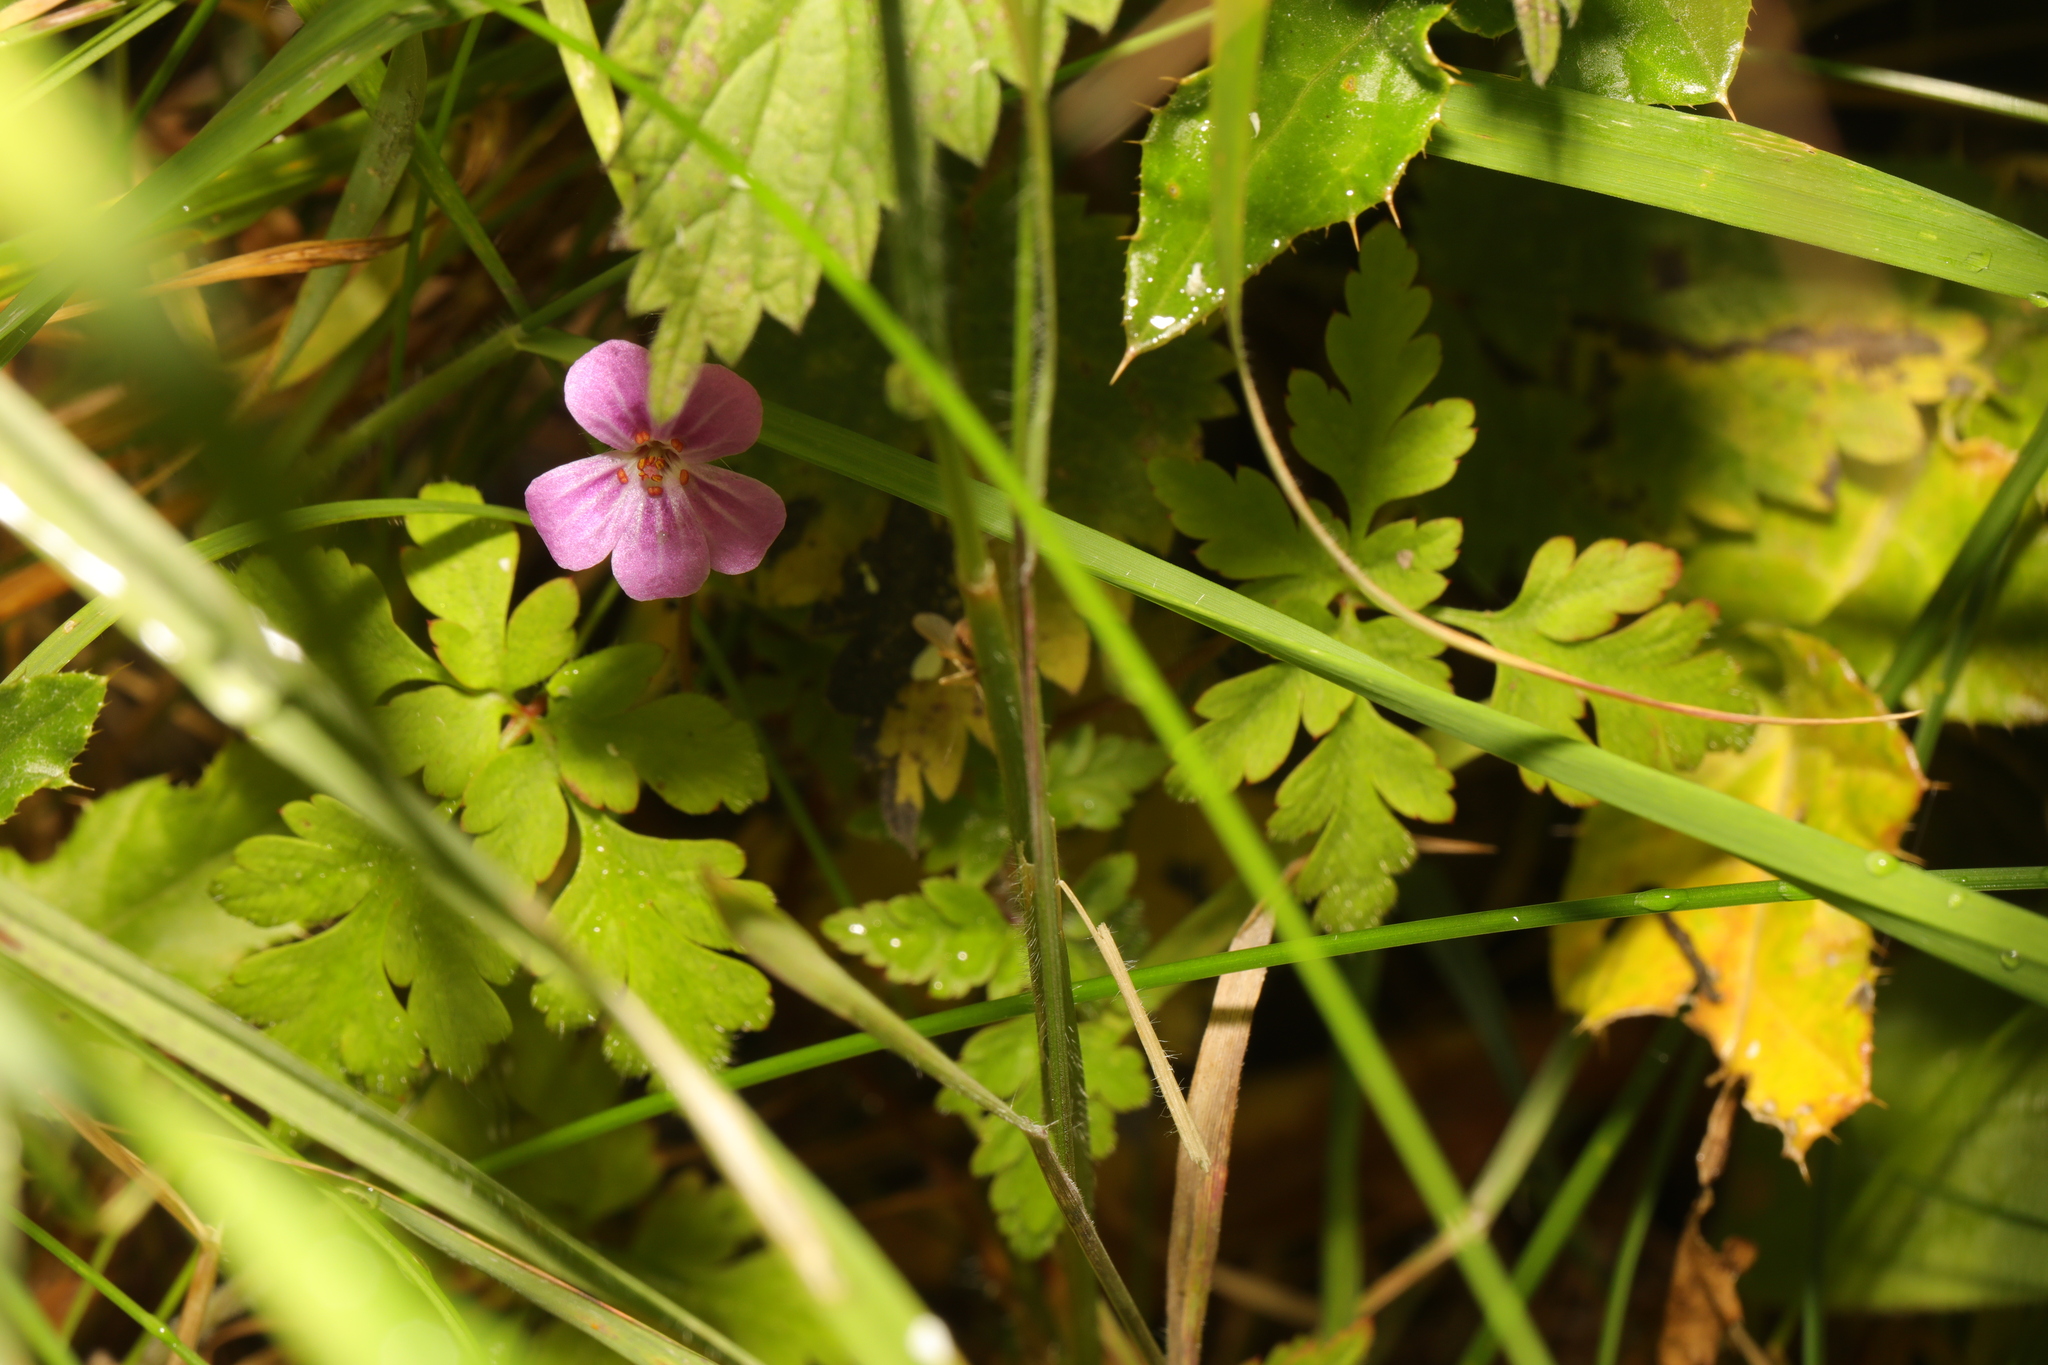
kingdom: Plantae
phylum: Tracheophyta
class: Magnoliopsida
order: Geraniales
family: Geraniaceae
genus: Geranium
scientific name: Geranium robertianum
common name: Herb-robert
